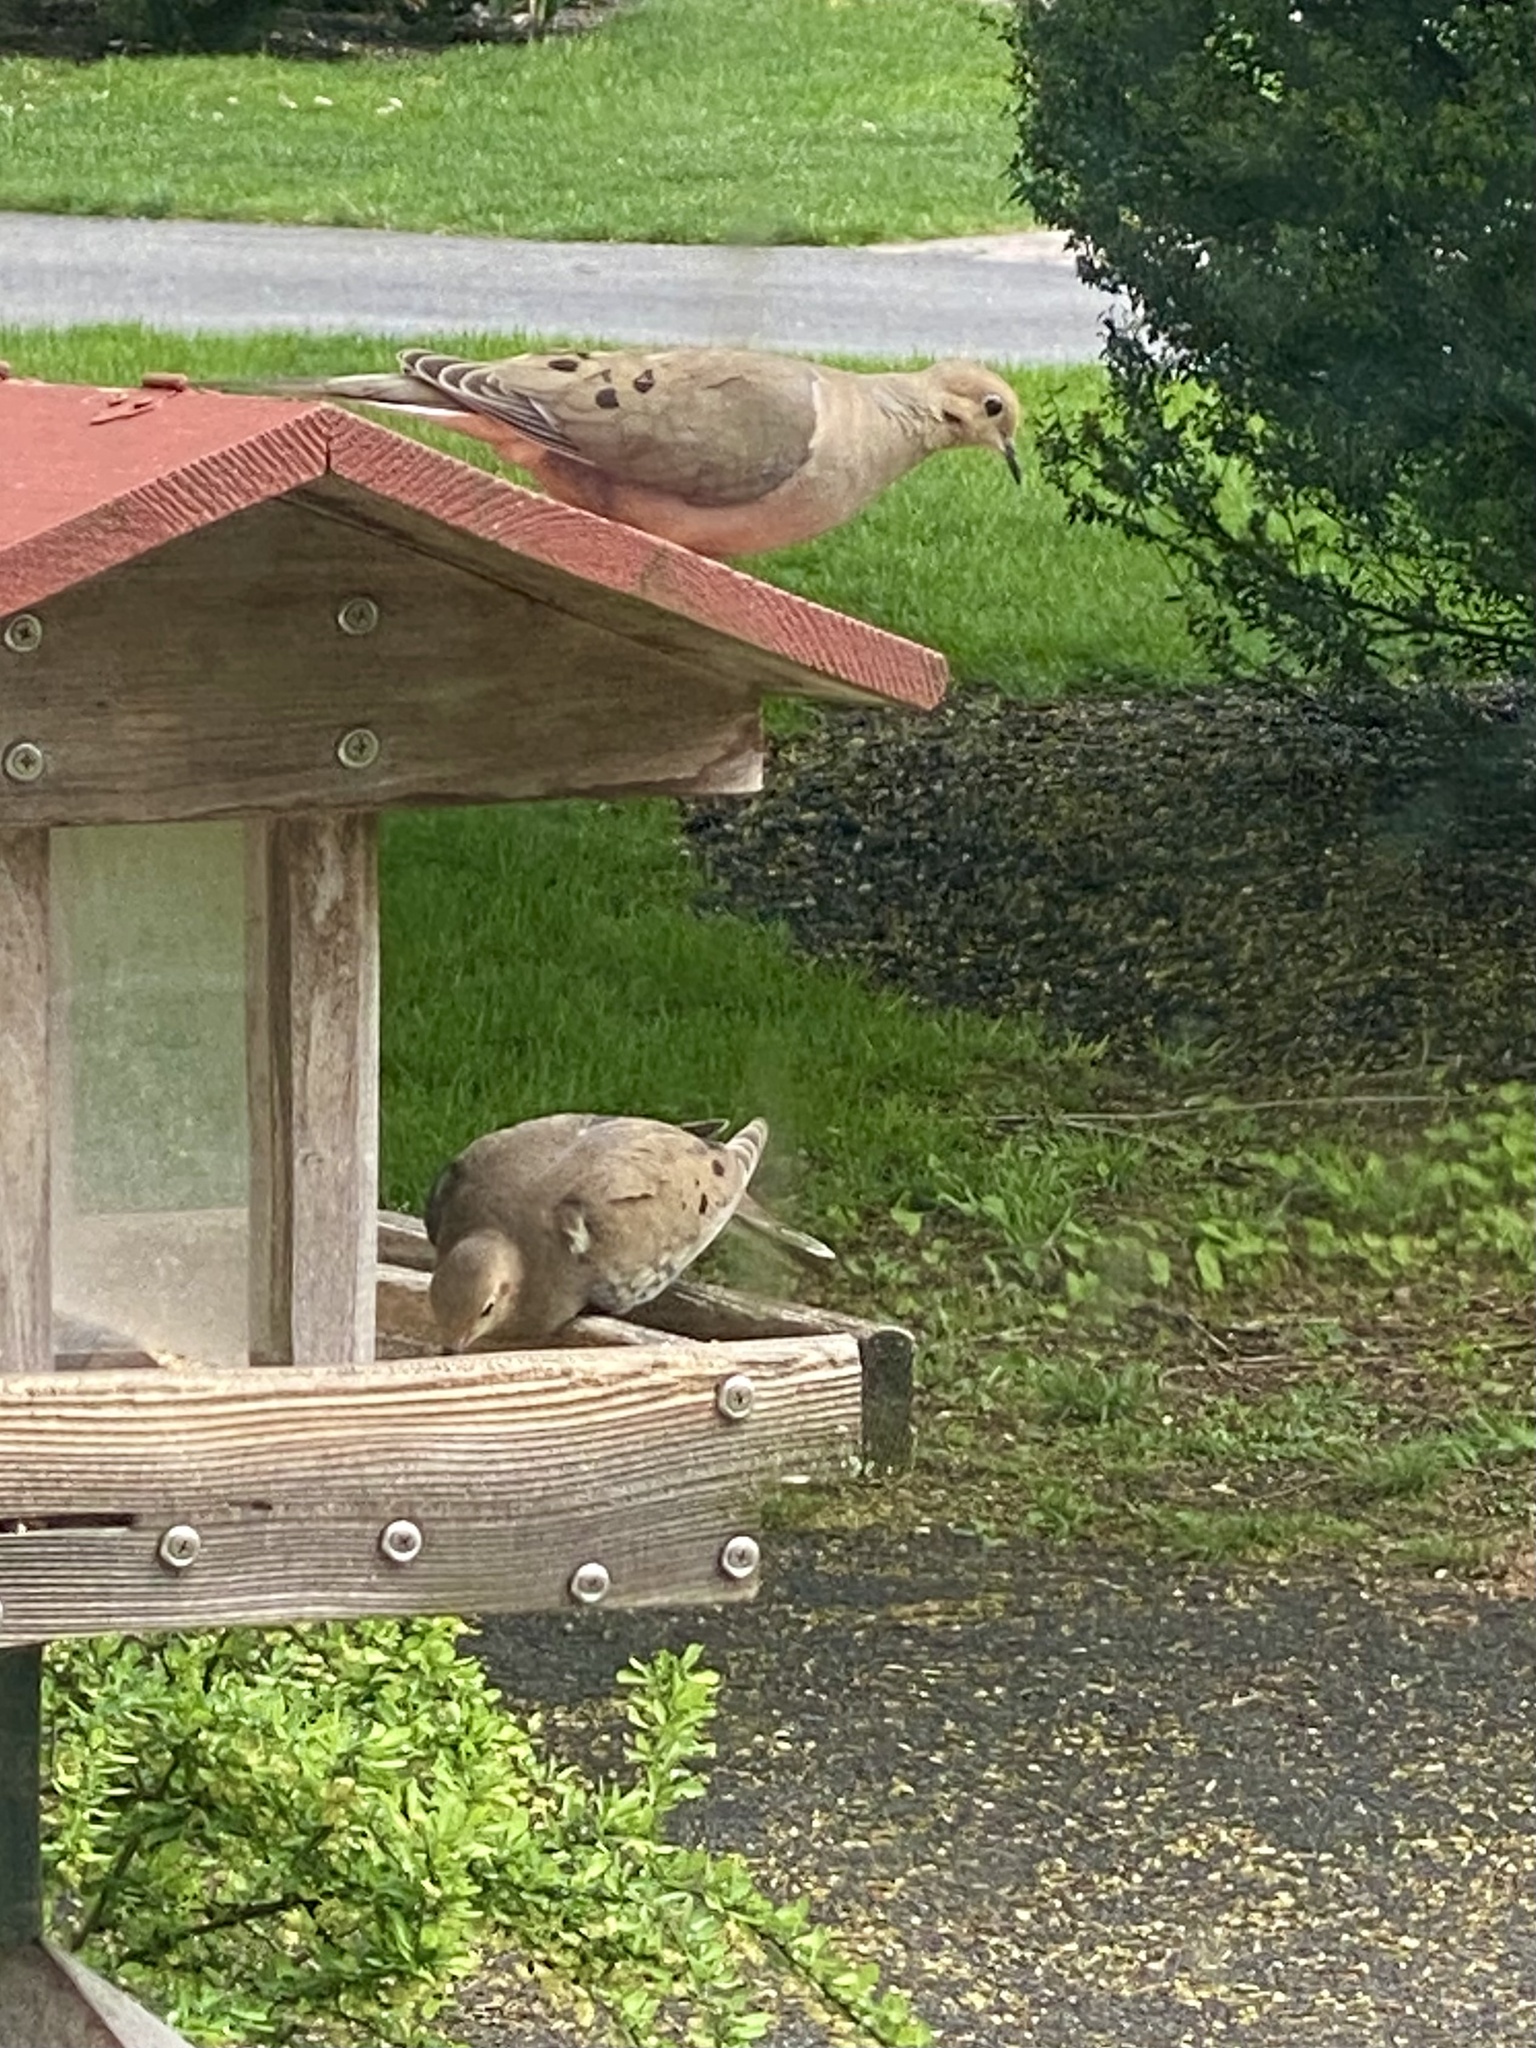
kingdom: Animalia
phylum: Chordata
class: Aves
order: Columbiformes
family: Columbidae
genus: Zenaida
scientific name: Zenaida macroura
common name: Mourning dove
